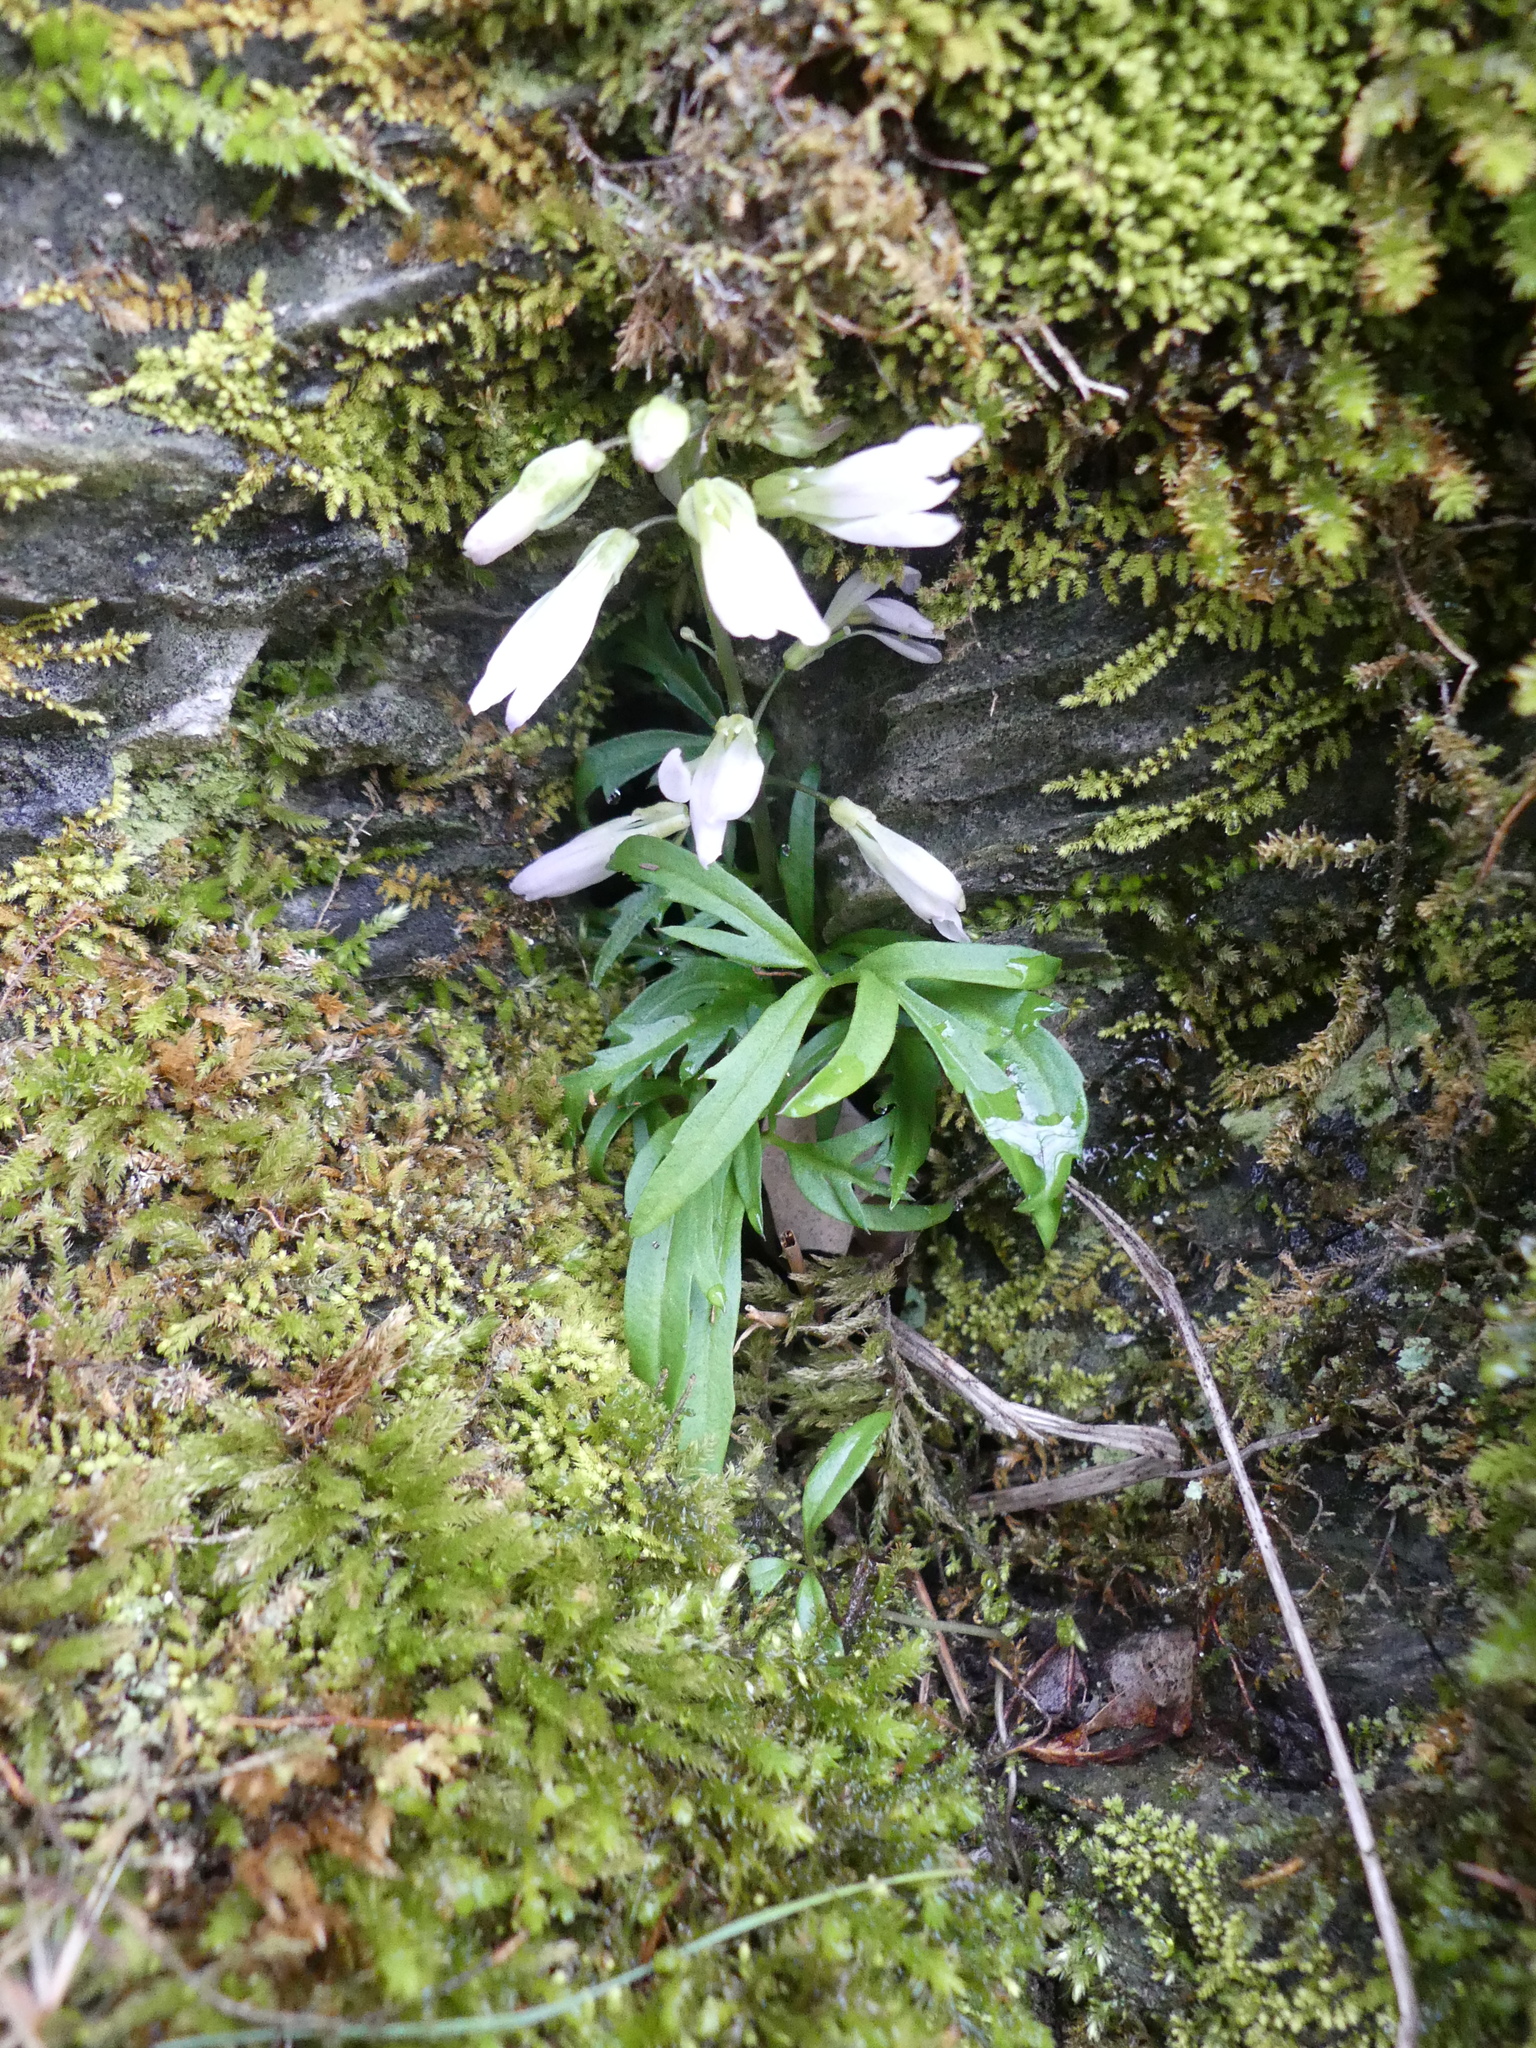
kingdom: Plantae
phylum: Tracheophyta
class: Magnoliopsida
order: Brassicales
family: Brassicaceae
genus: Cardamine
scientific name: Cardamine concatenata
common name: Cut-leaf toothcup
